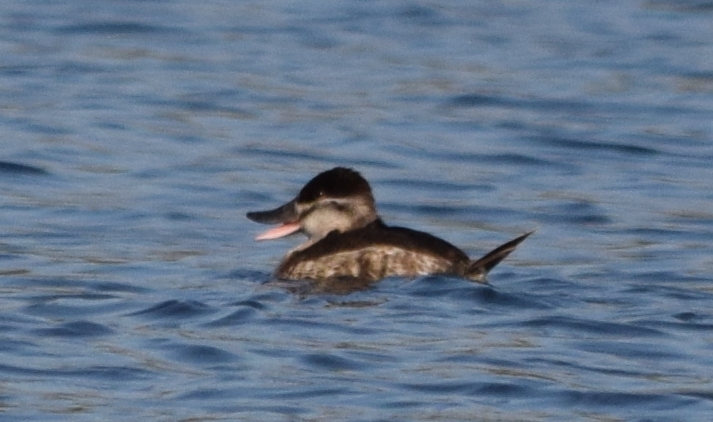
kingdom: Animalia
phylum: Chordata
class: Aves
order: Anseriformes
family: Anatidae
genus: Oxyura
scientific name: Oxyura jamaicensis
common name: Ruddy duck
